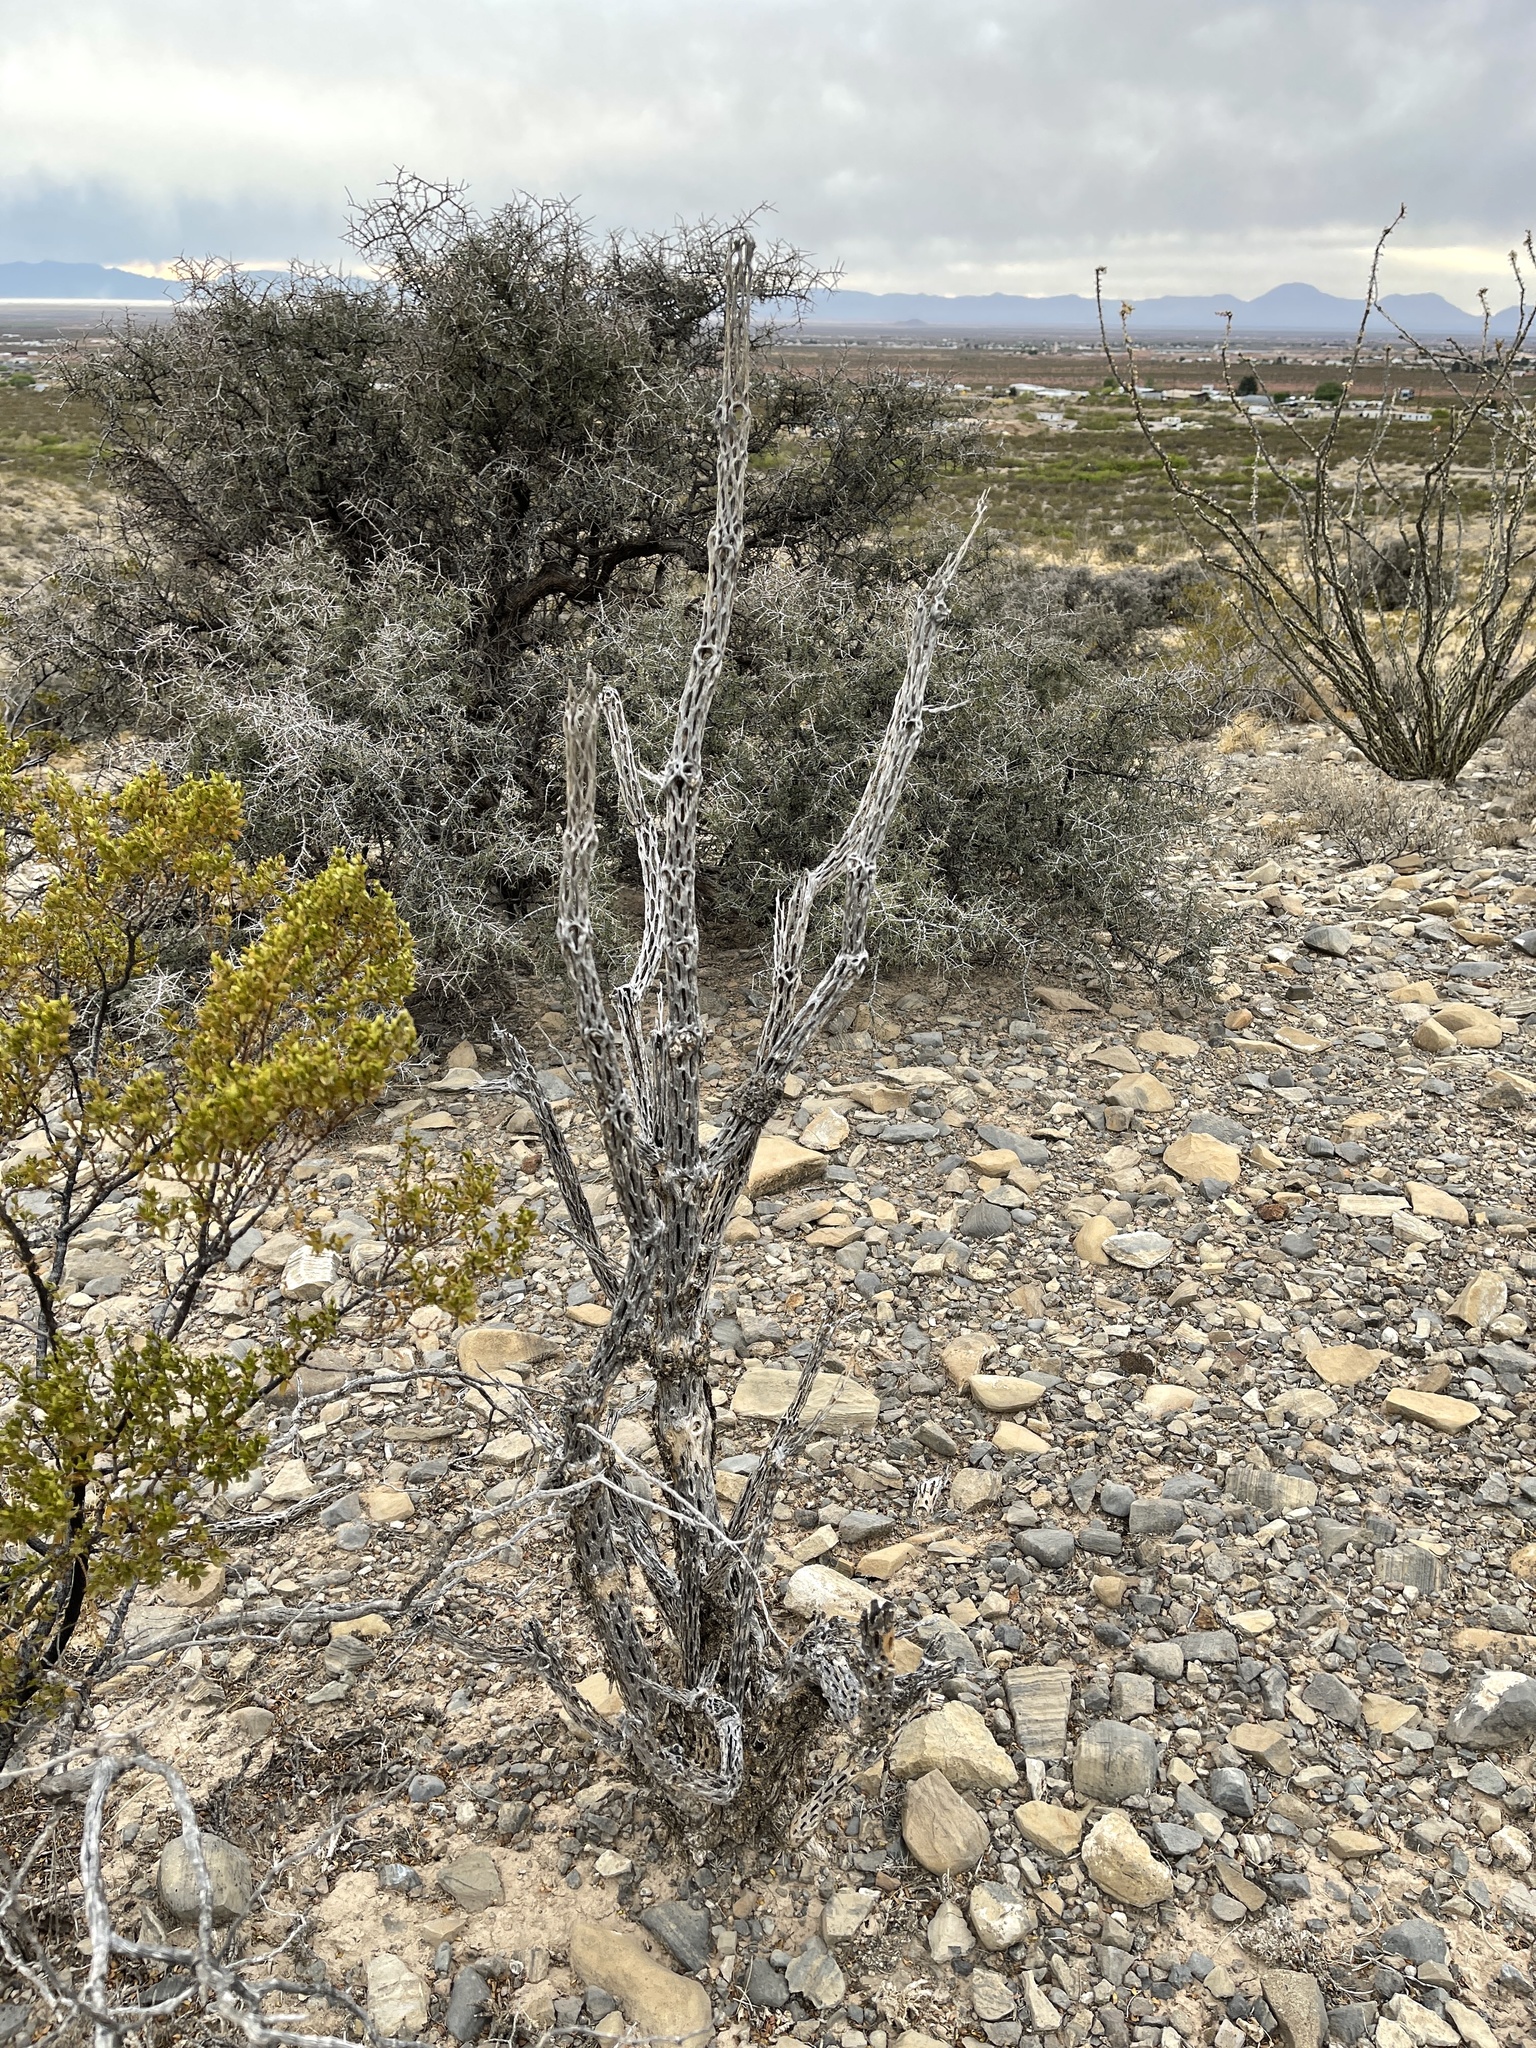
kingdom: Plantae
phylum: Tracheophyta
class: Magnoliopsida
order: Caryophyllales
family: Cactaceae
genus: Cylindropuntia
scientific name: Cylindropuntia imbricata
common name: Candelabrum cactus
